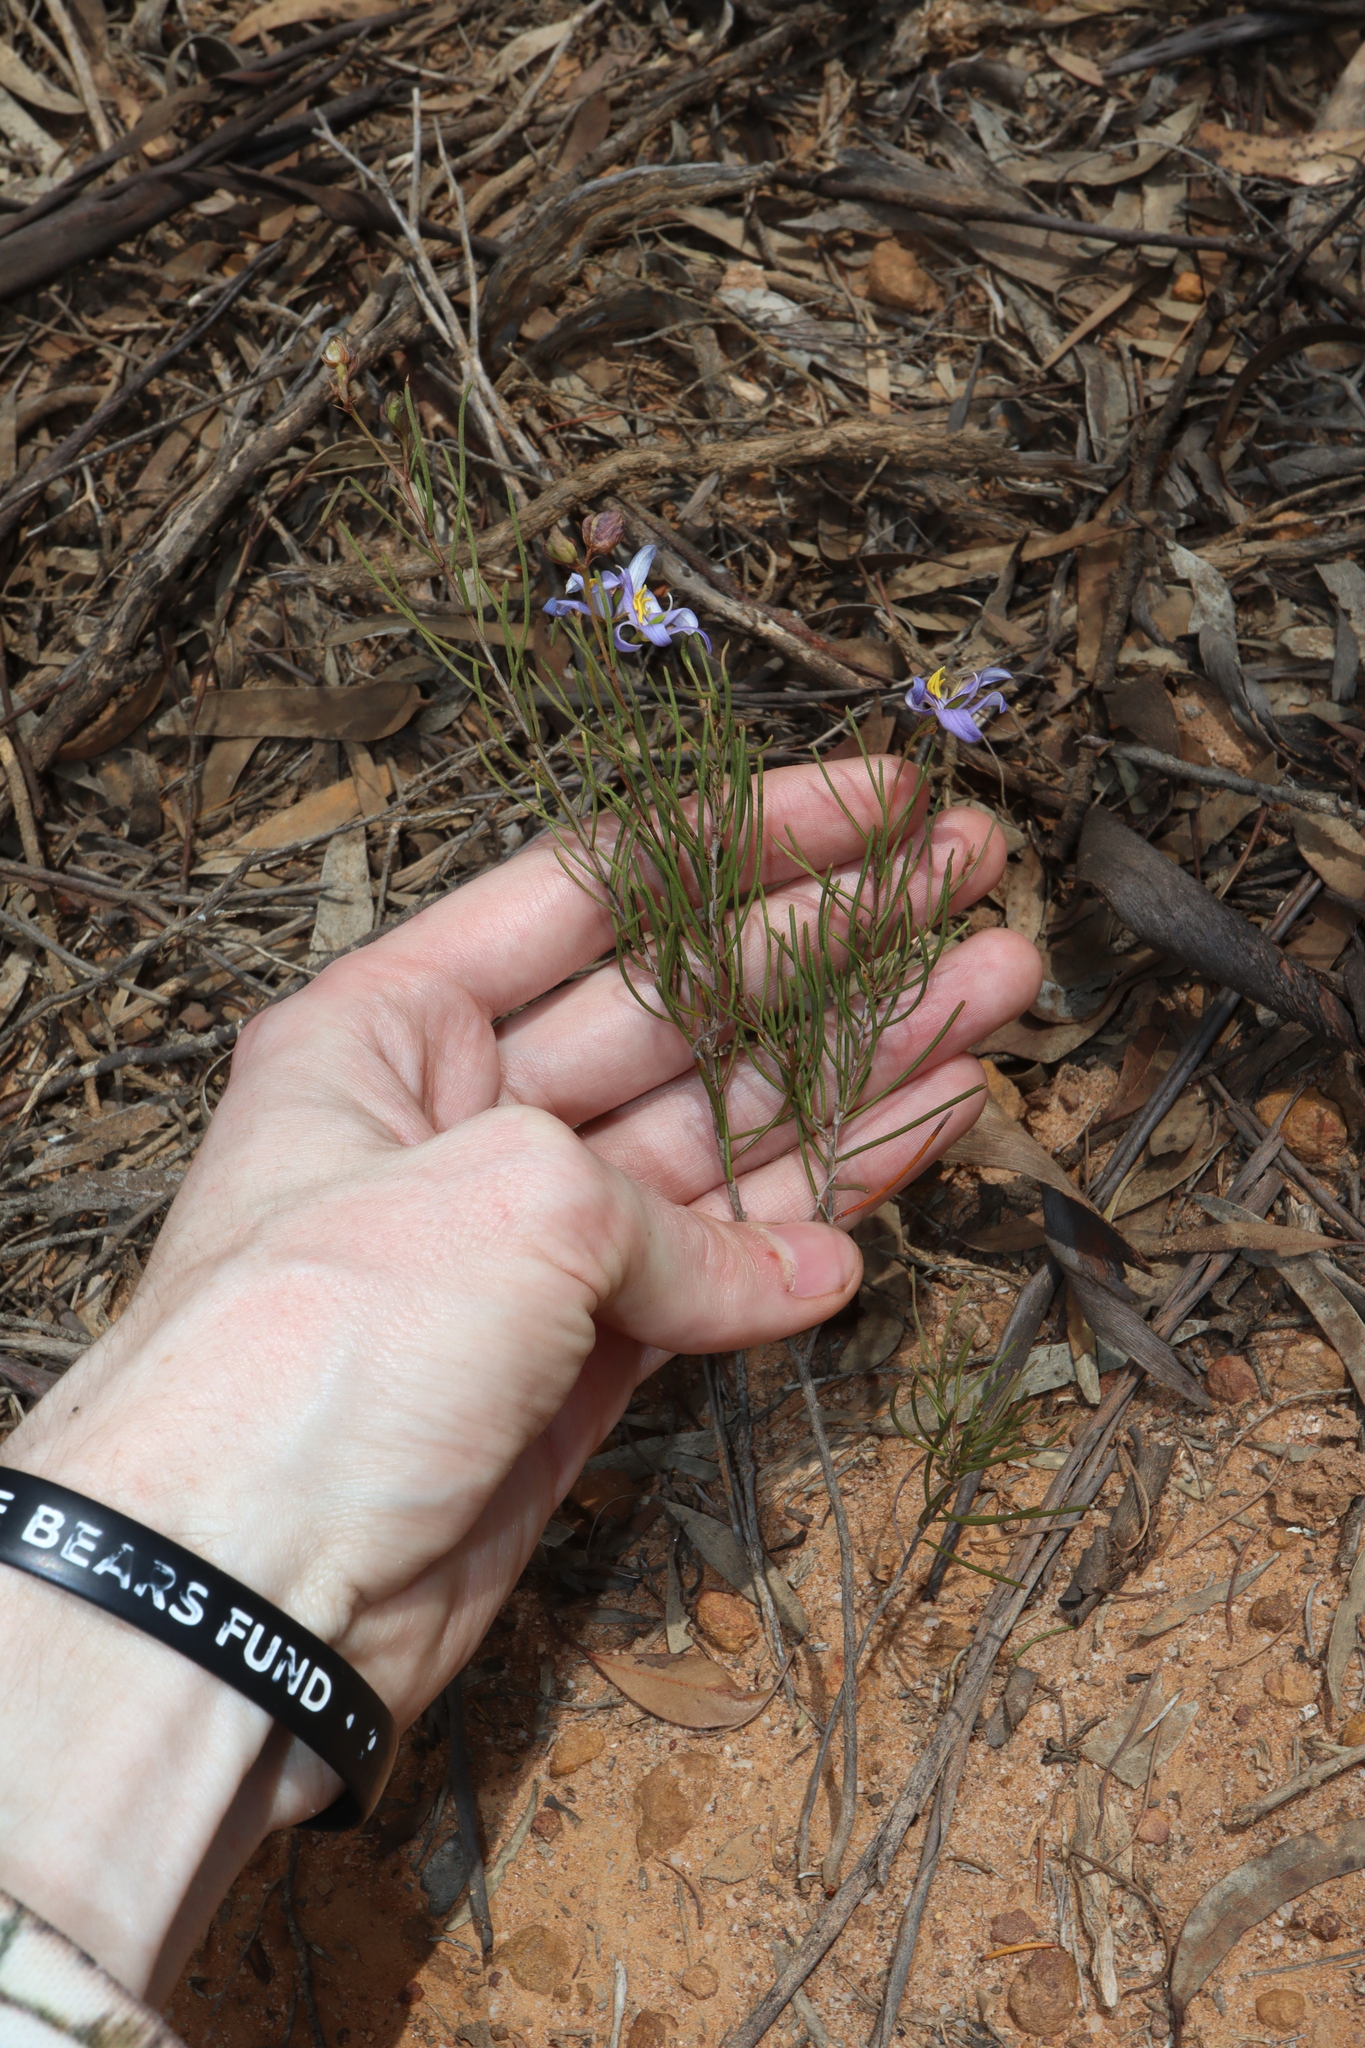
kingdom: Plantae
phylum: Tracheophyta
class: Magnoliopsida
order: Apiales
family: Pittosporaceae
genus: Cheiranthera
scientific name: Cheiranthera filifolia
